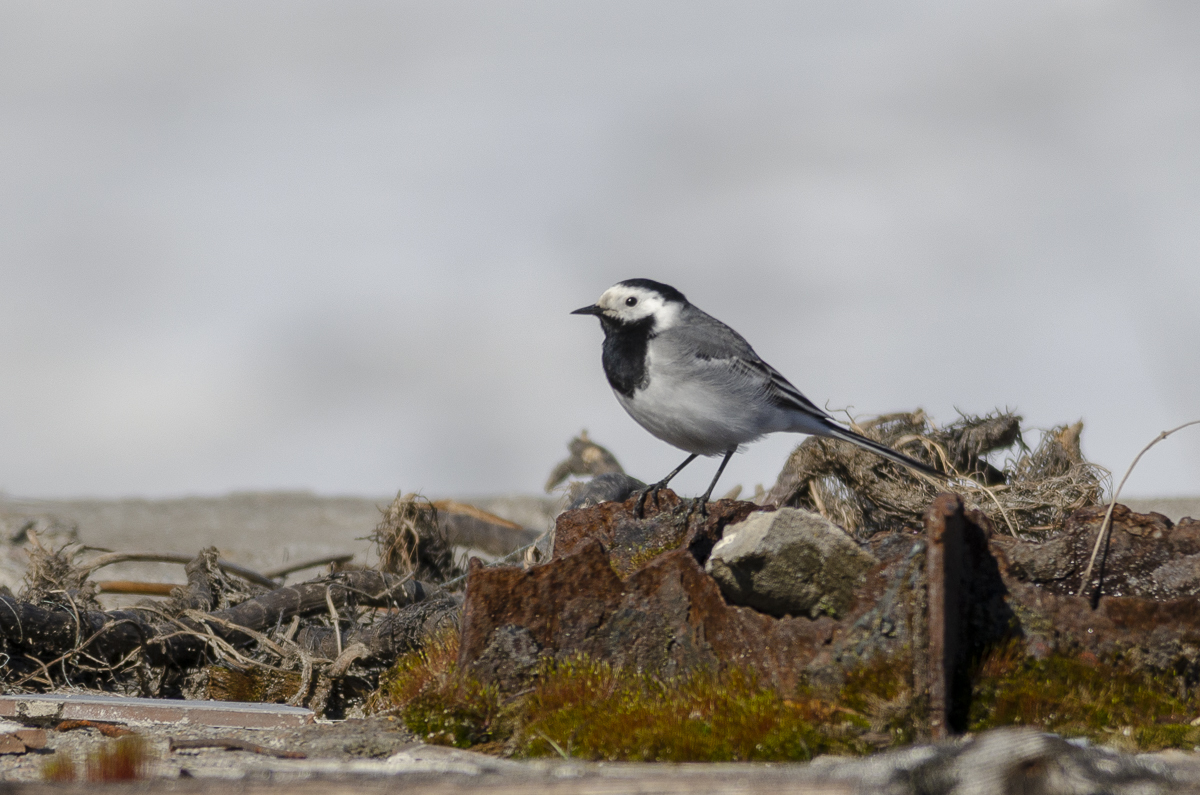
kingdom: Animalia
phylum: Chordata
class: Aves
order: Passeriformes
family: Motacillidae
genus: Motacilla
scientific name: Motacilla alba
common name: White wagtail
